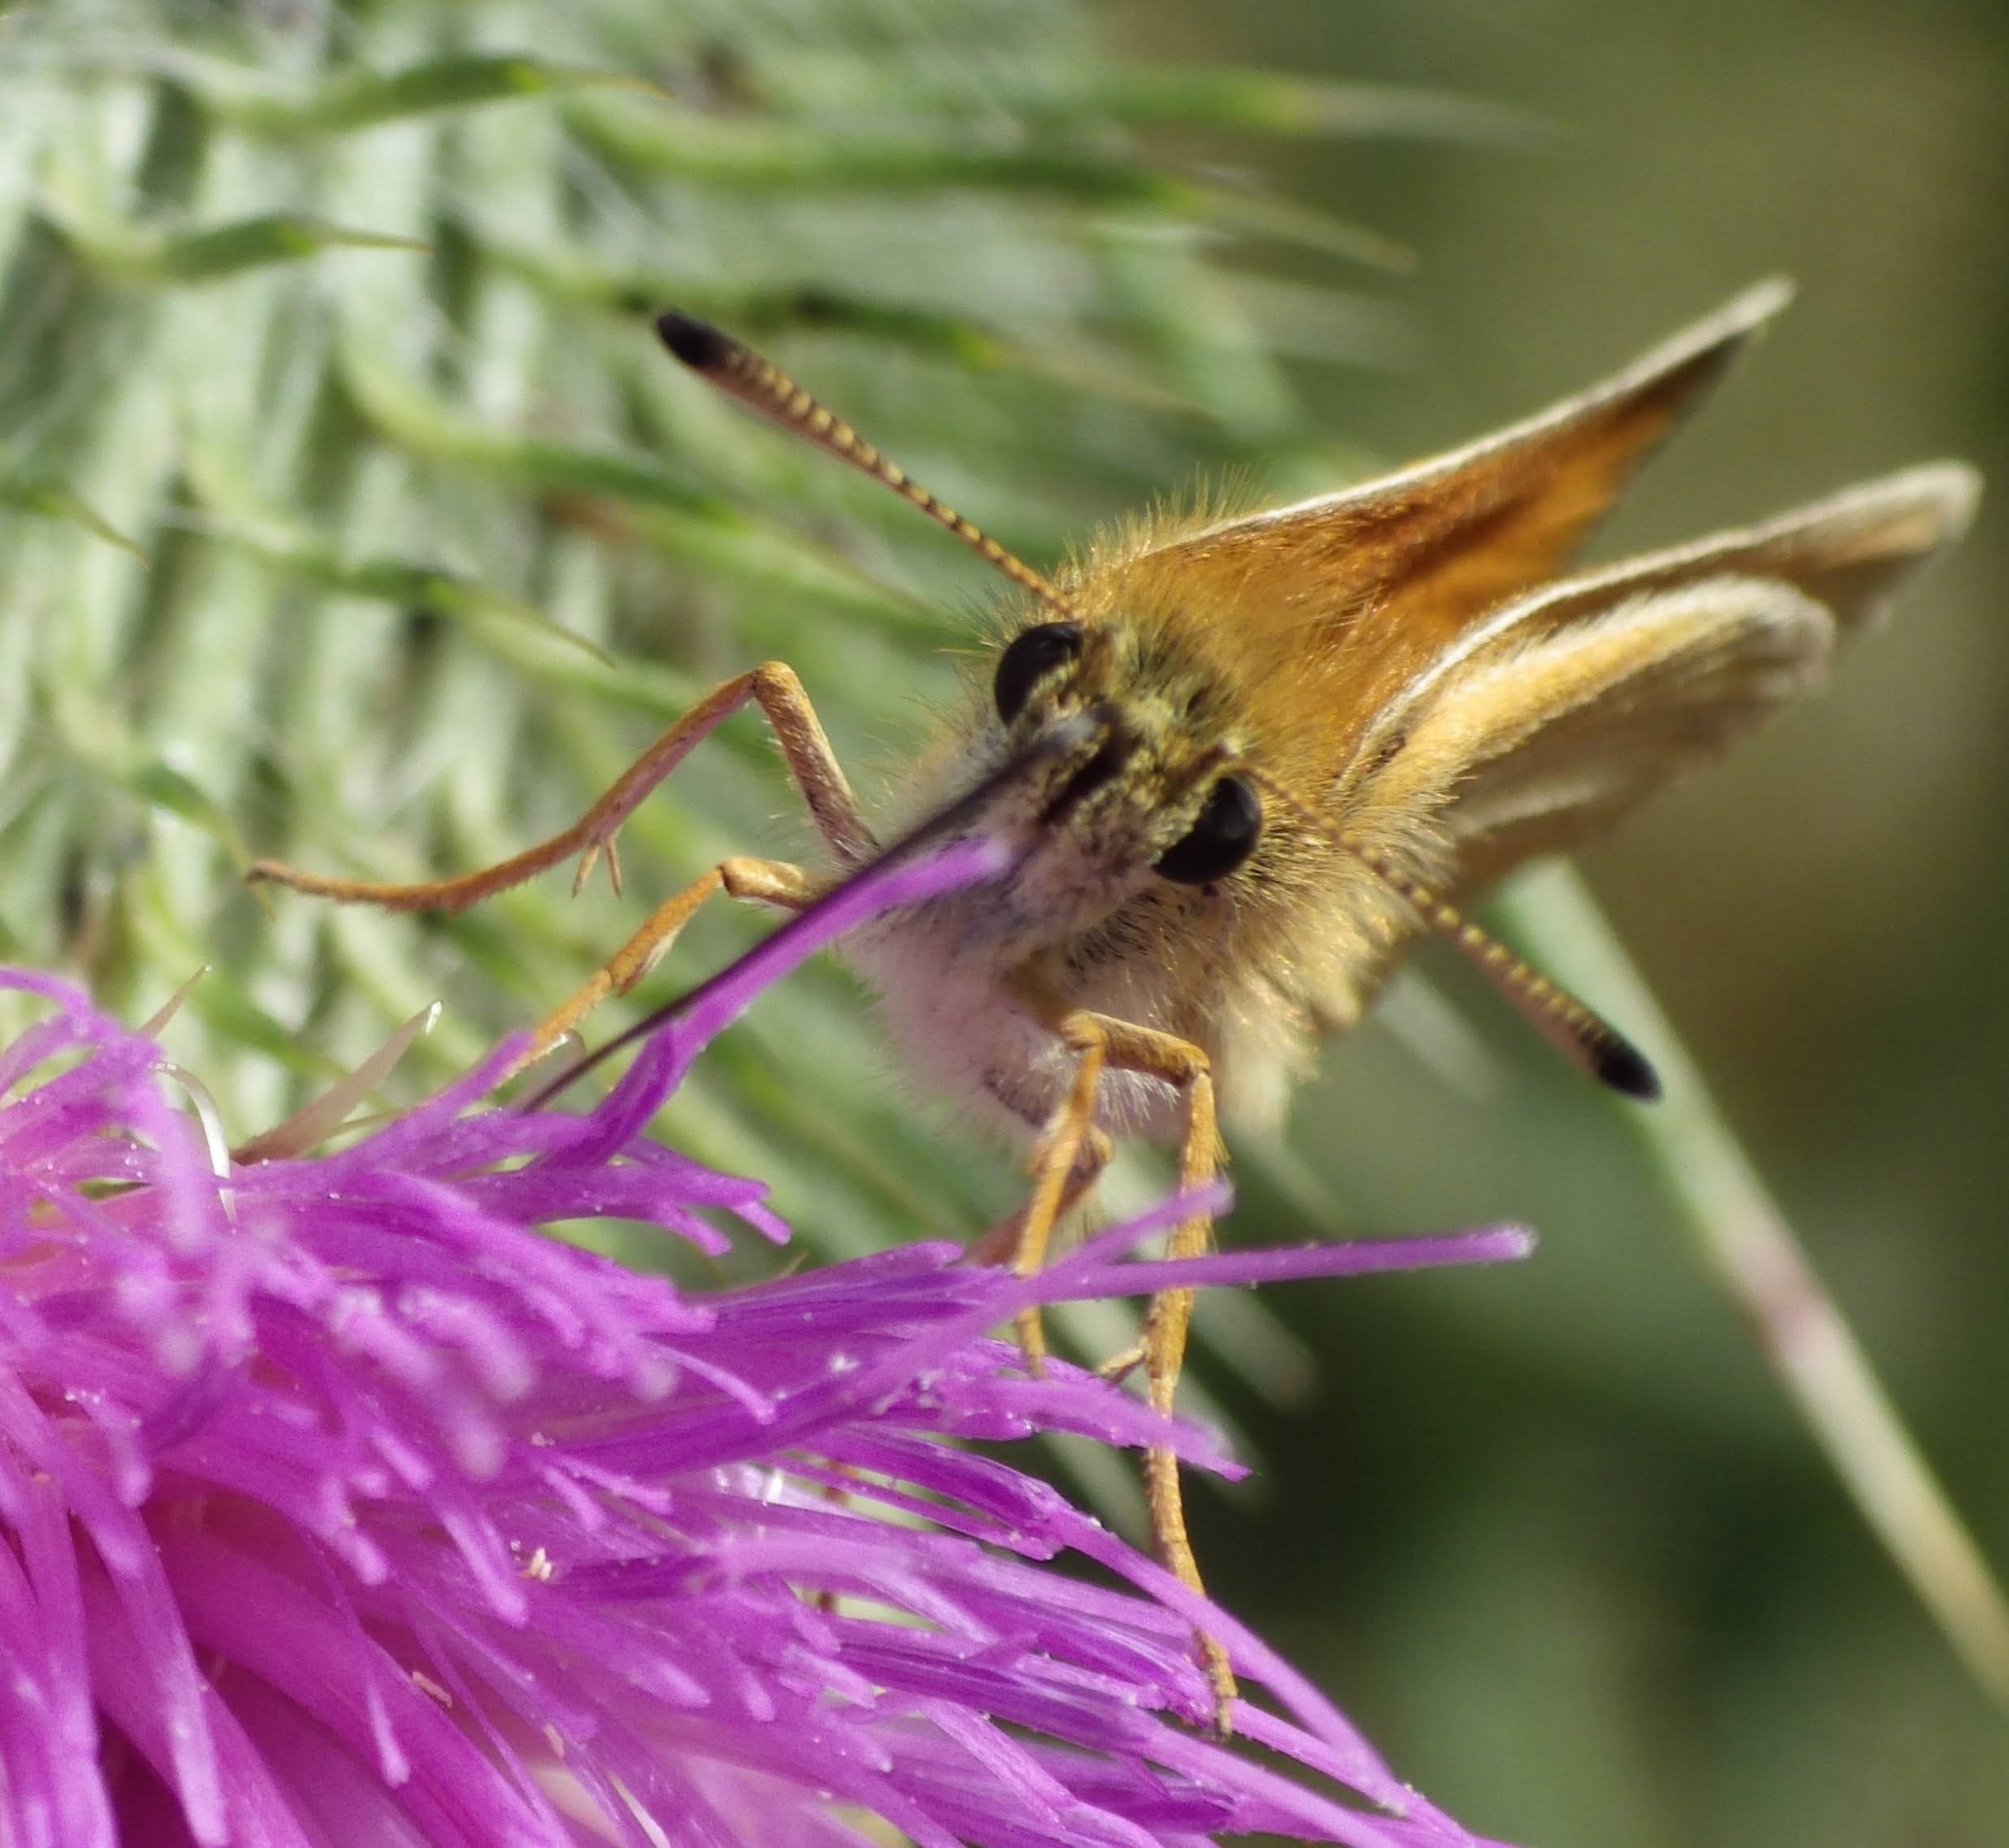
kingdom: Animalia
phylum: Arthropoda
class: Insecta
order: Lepidoptera
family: Hesperiidae
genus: Thymelicus
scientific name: Thymelicus lineola
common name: Essex skipper
